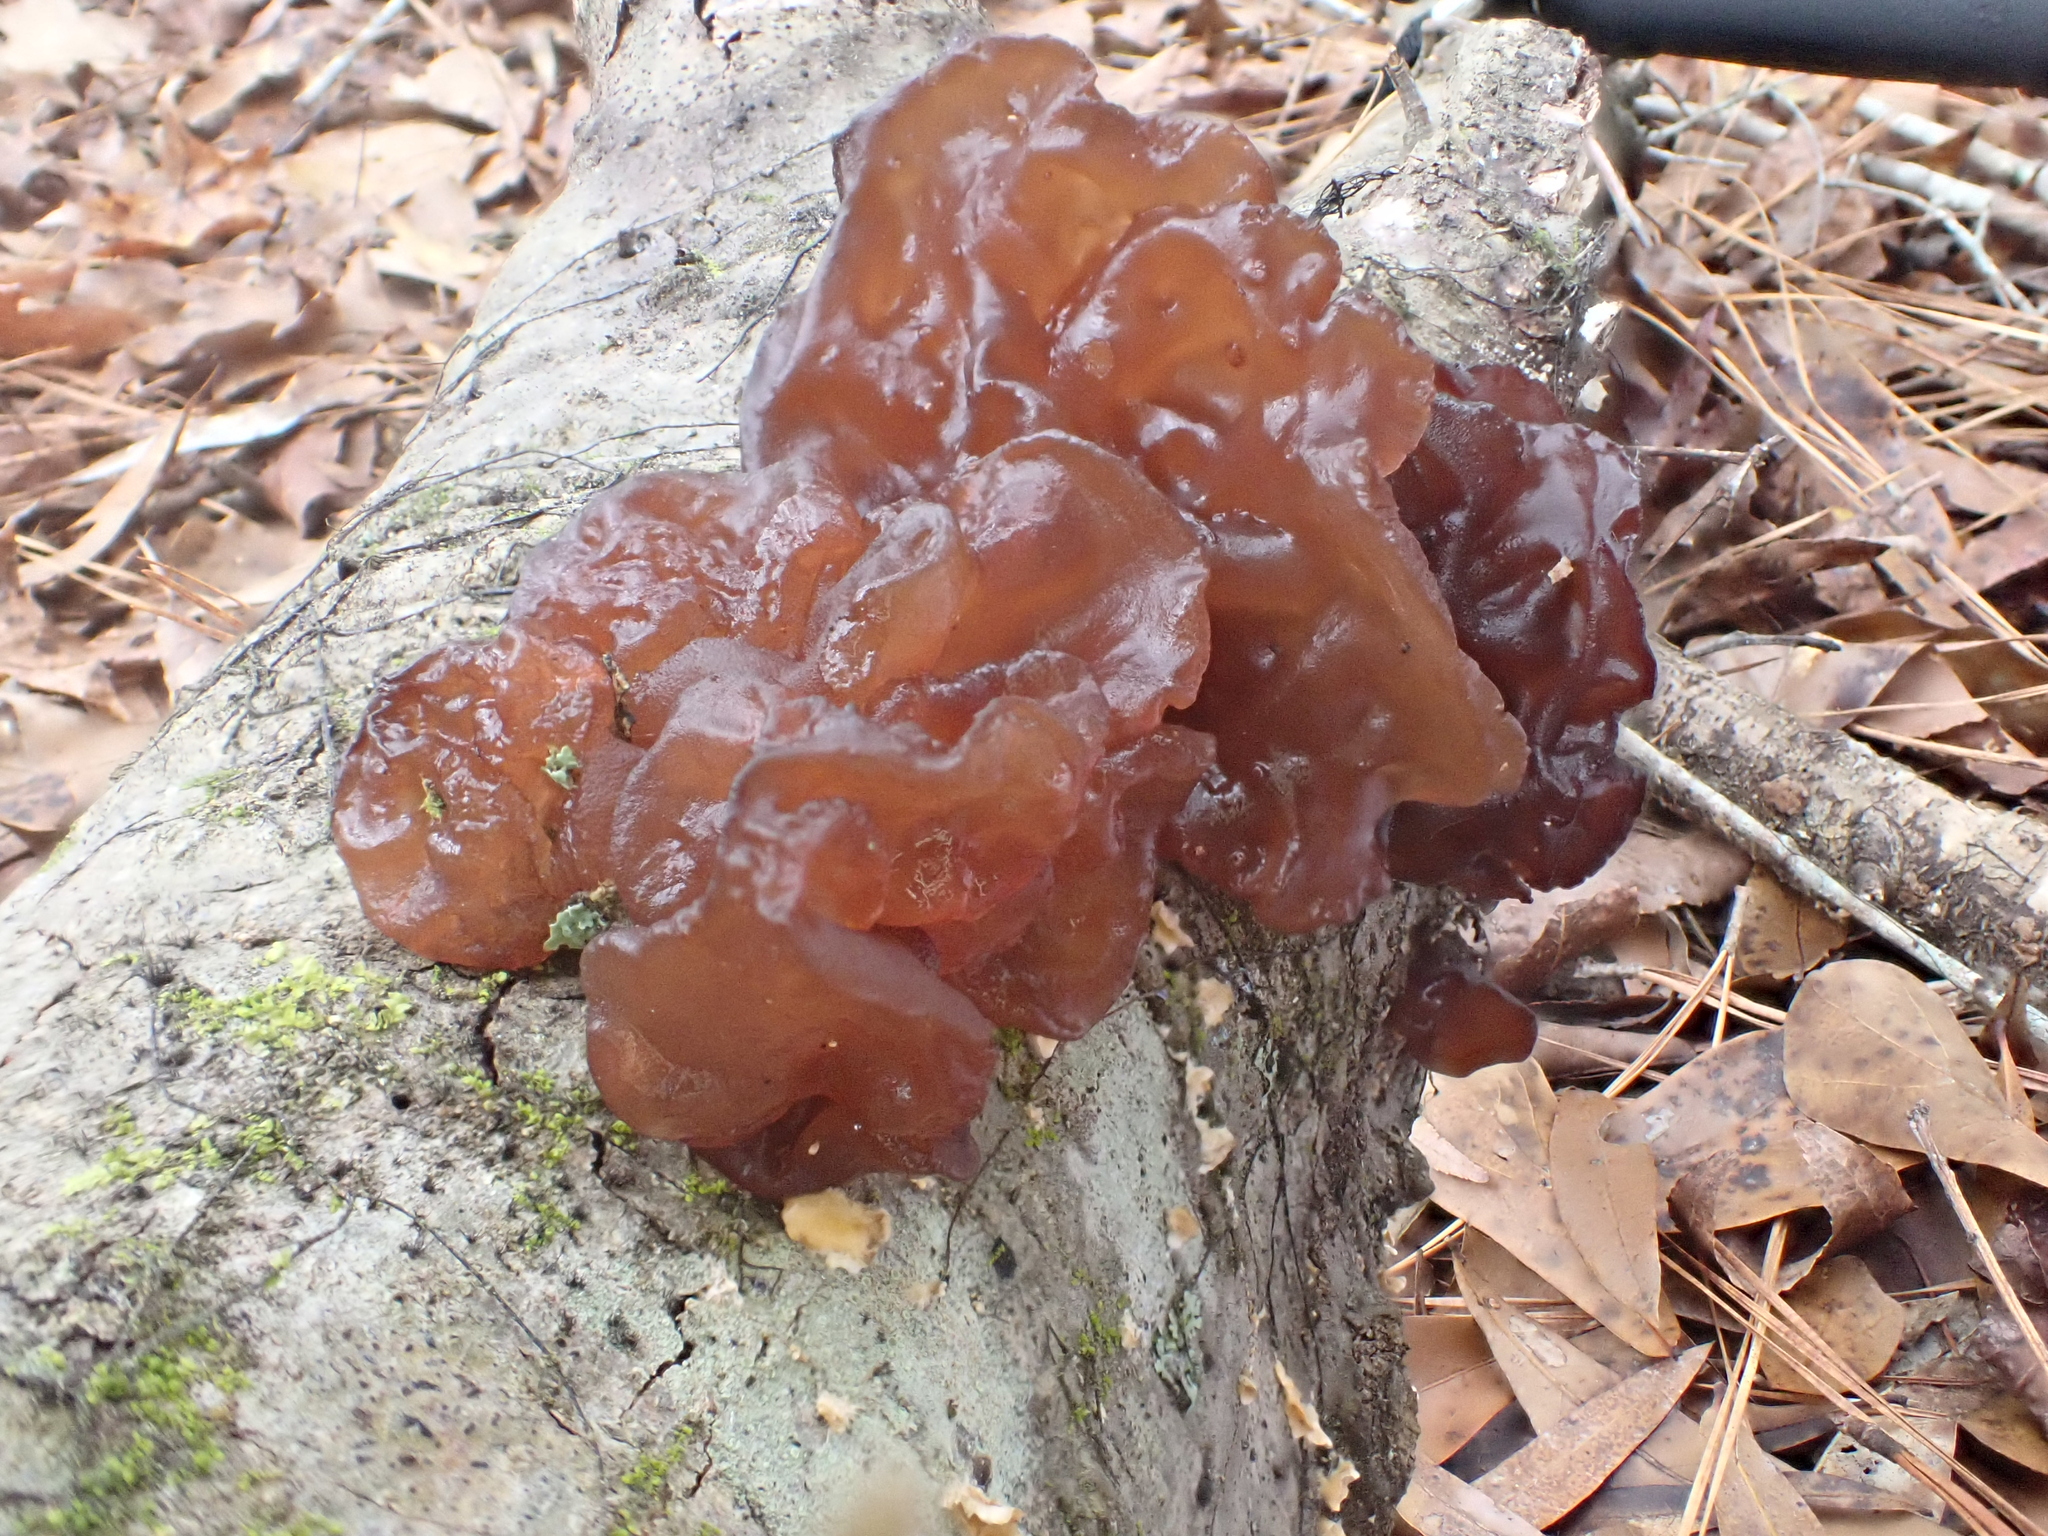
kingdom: Fungi
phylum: Basidiomycota
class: Agaricomycetes
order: Auriculariales
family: Auriculariaceae
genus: Exidia
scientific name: Exidia
